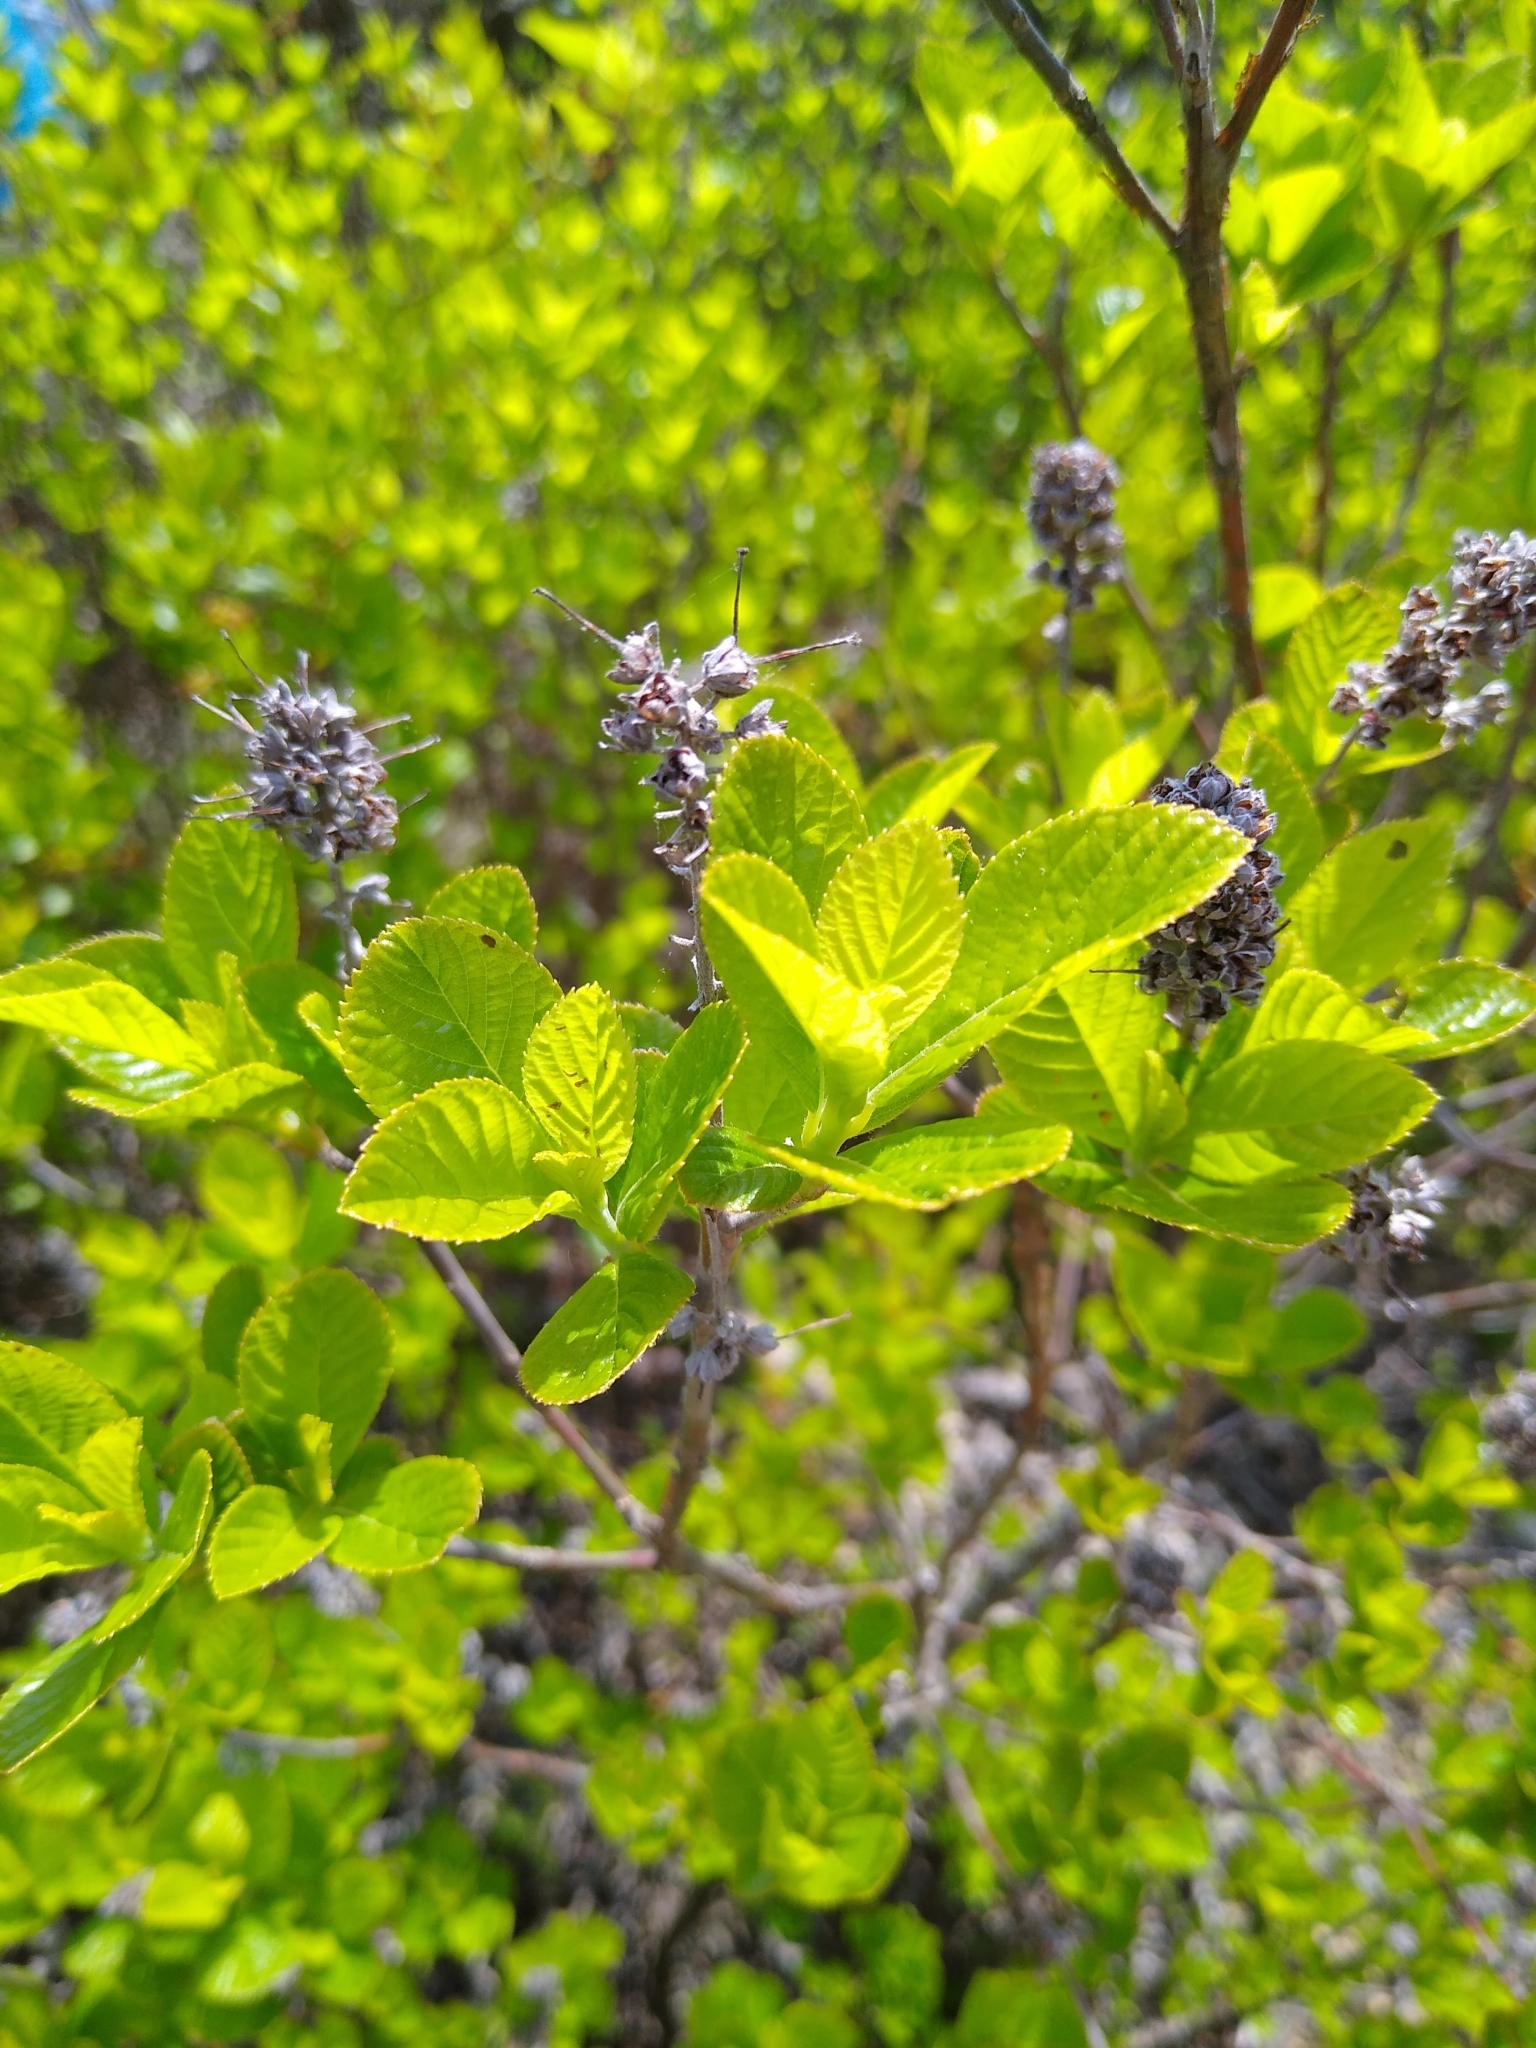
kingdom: Plantae
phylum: Tracheophyta
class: Magnoliopsida
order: Ericales
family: Clethraceae
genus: Clethra
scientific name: Clethra alnifolia
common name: Sweet pepperbush
